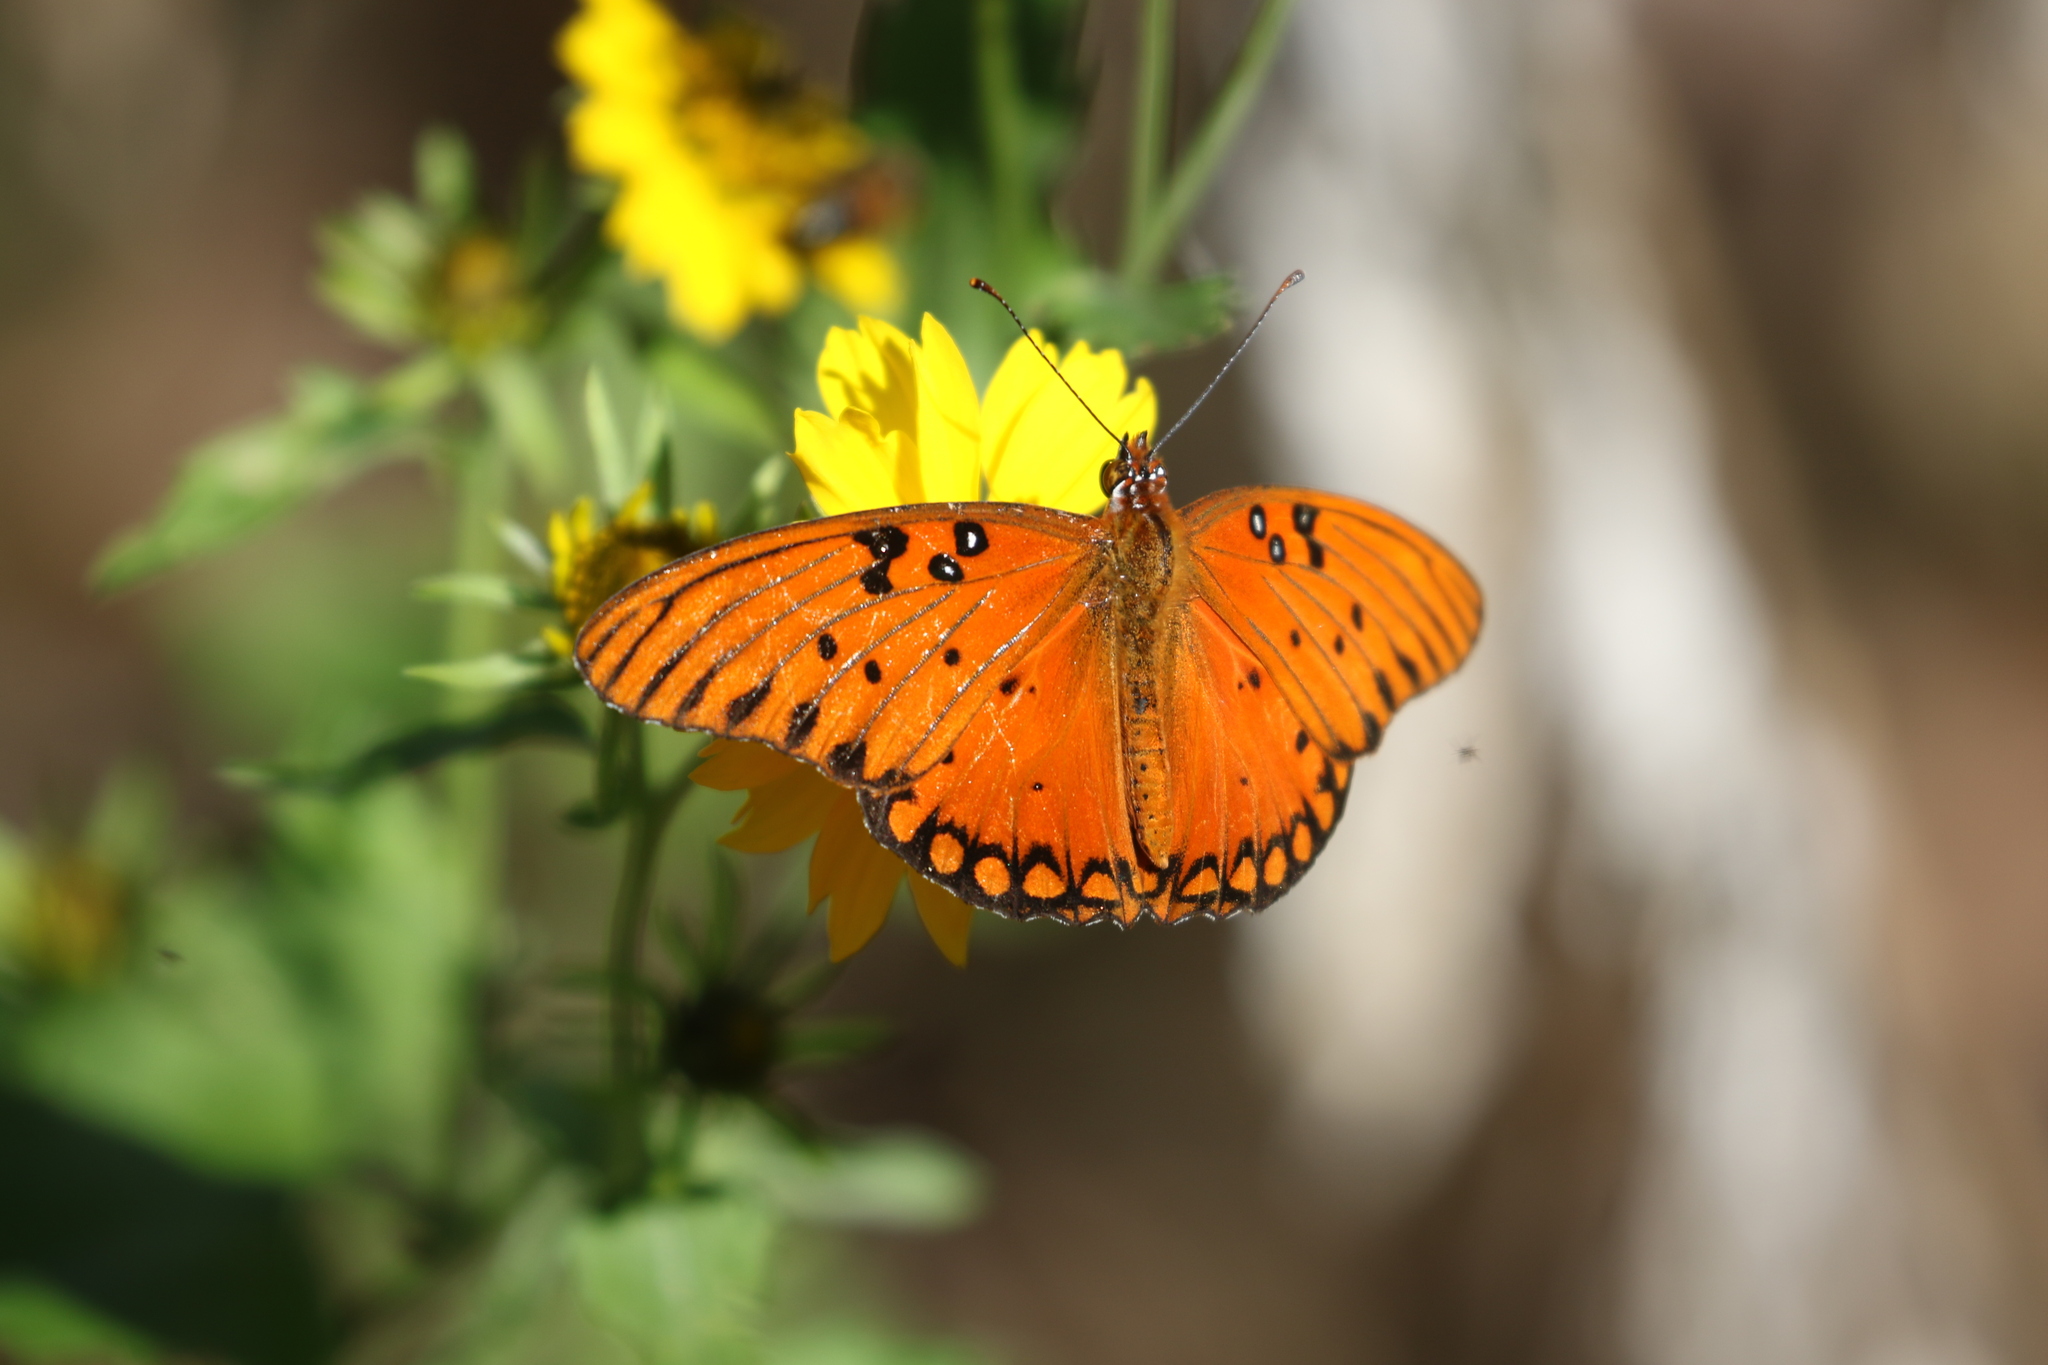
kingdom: Animalia
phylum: Arthropoda
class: Insecta
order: Lepidoptera
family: Nymphalidae
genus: Dione
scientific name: Dione vanillae
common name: Gulf fritillary
